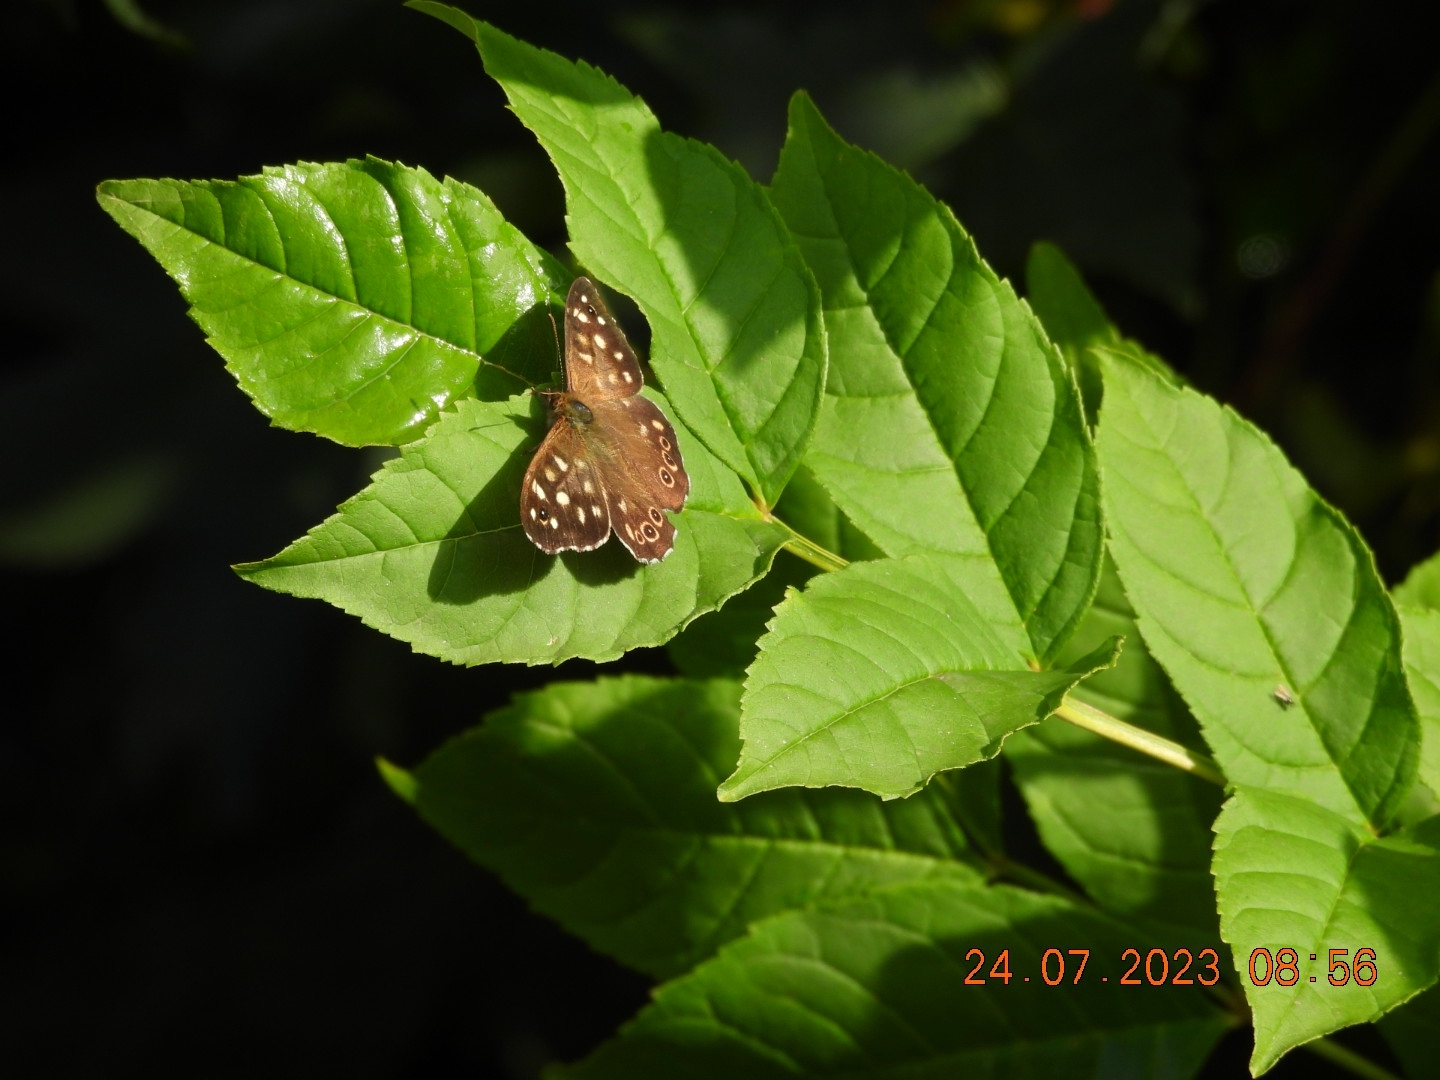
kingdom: Animalia
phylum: Arthropoda
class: Insecta
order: Lepidoptera
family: Nymphalidae
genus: Pararge
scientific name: Pararge aegeria
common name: Speckled wood
